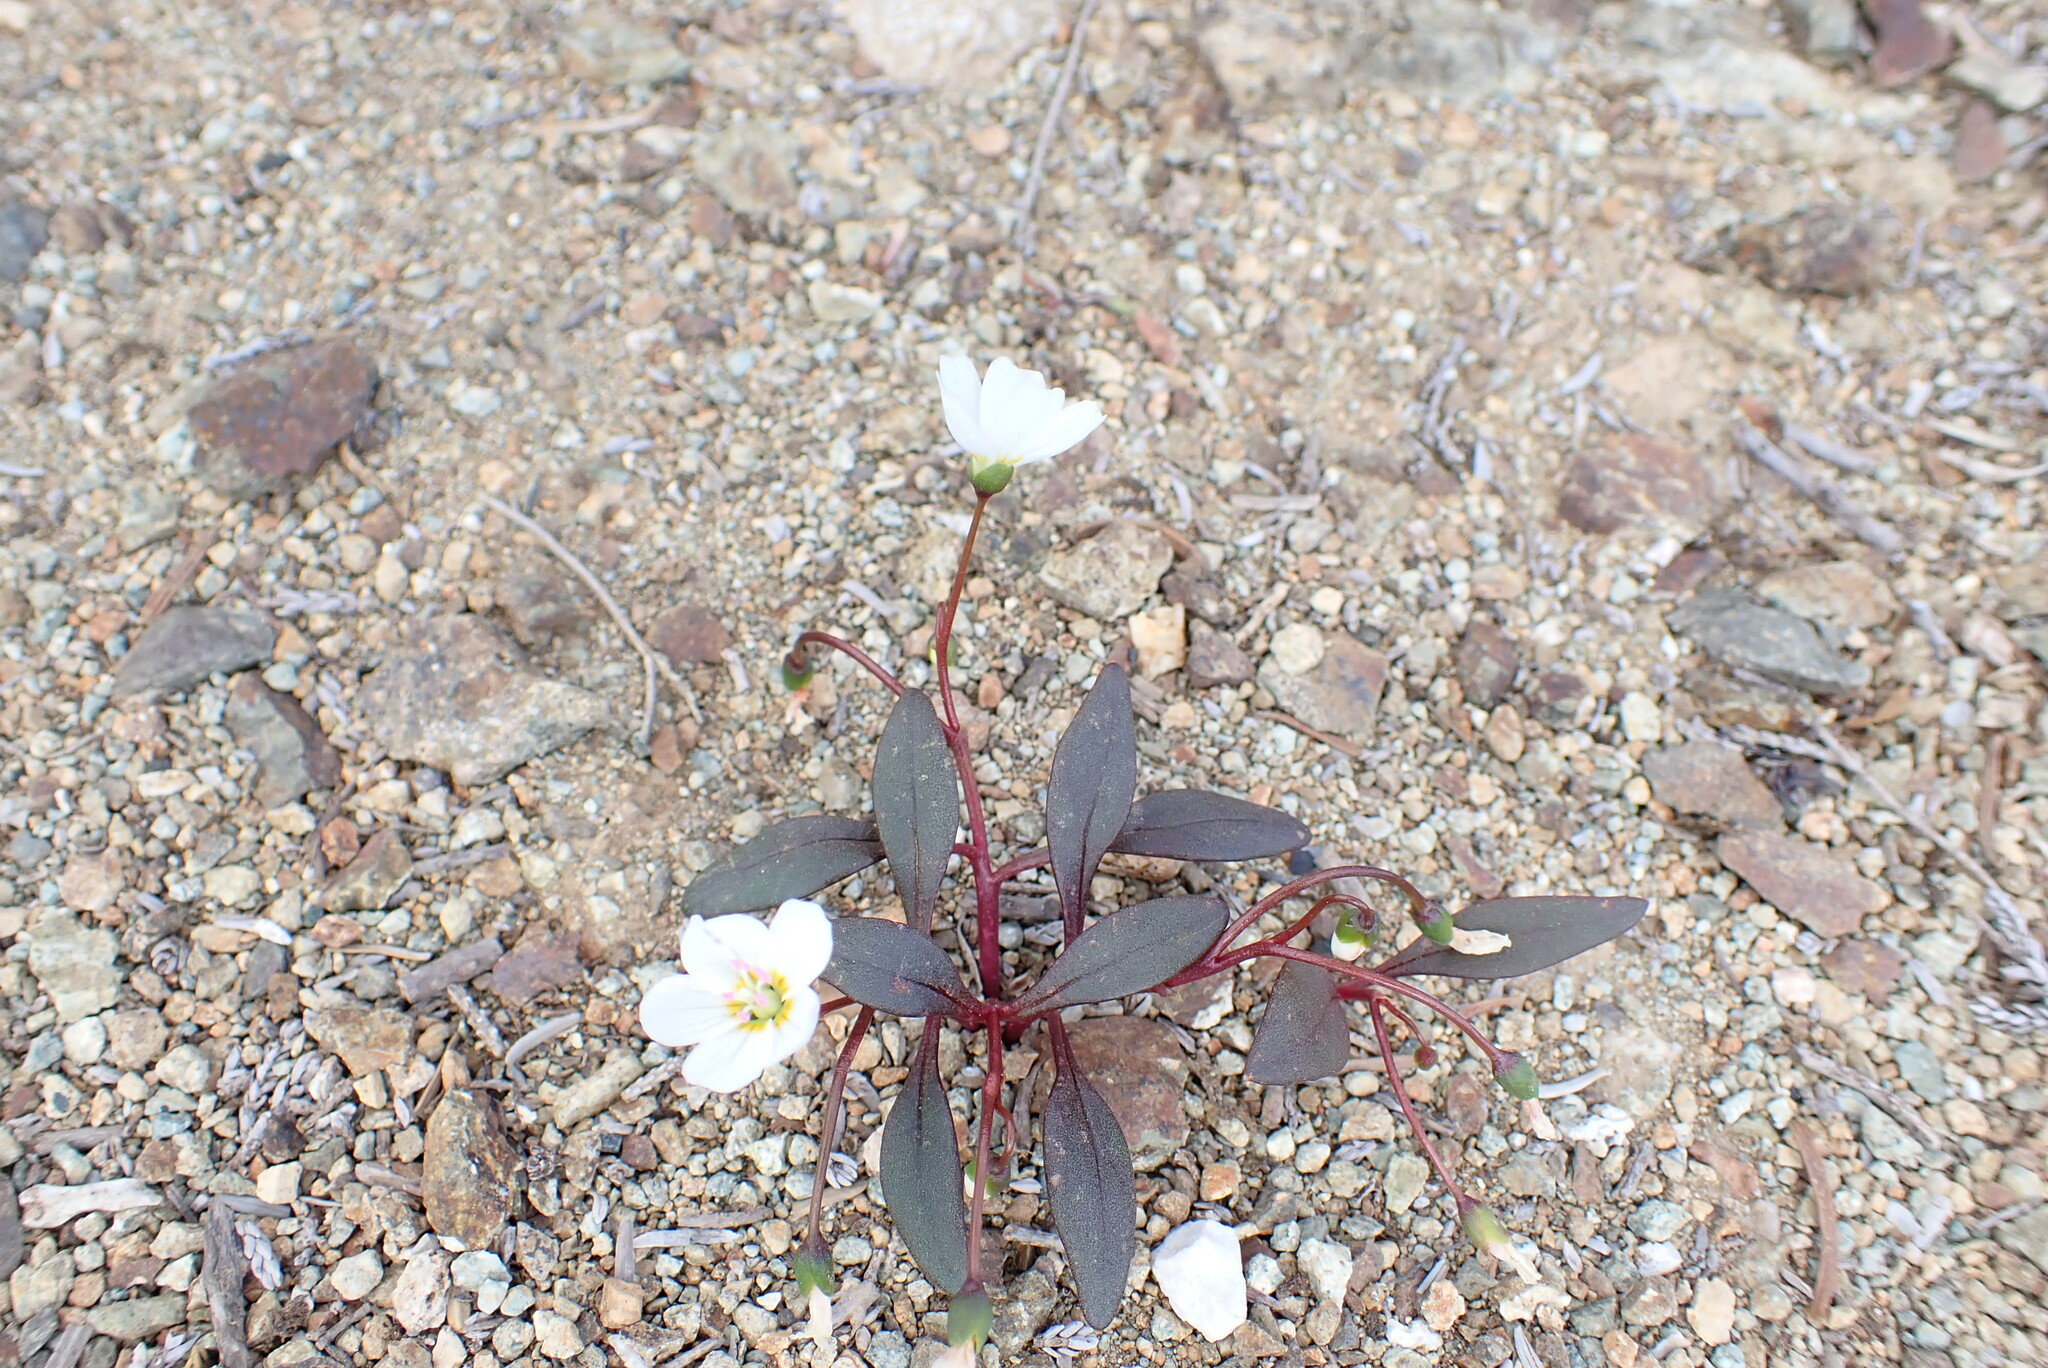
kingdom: Plantae
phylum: Tracheophyta
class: Magnoliopsida
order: Caryophyllales
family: Montiaceae
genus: Claytonia
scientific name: Claytonia multiscapa
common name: Lanceleaf springbeauty
